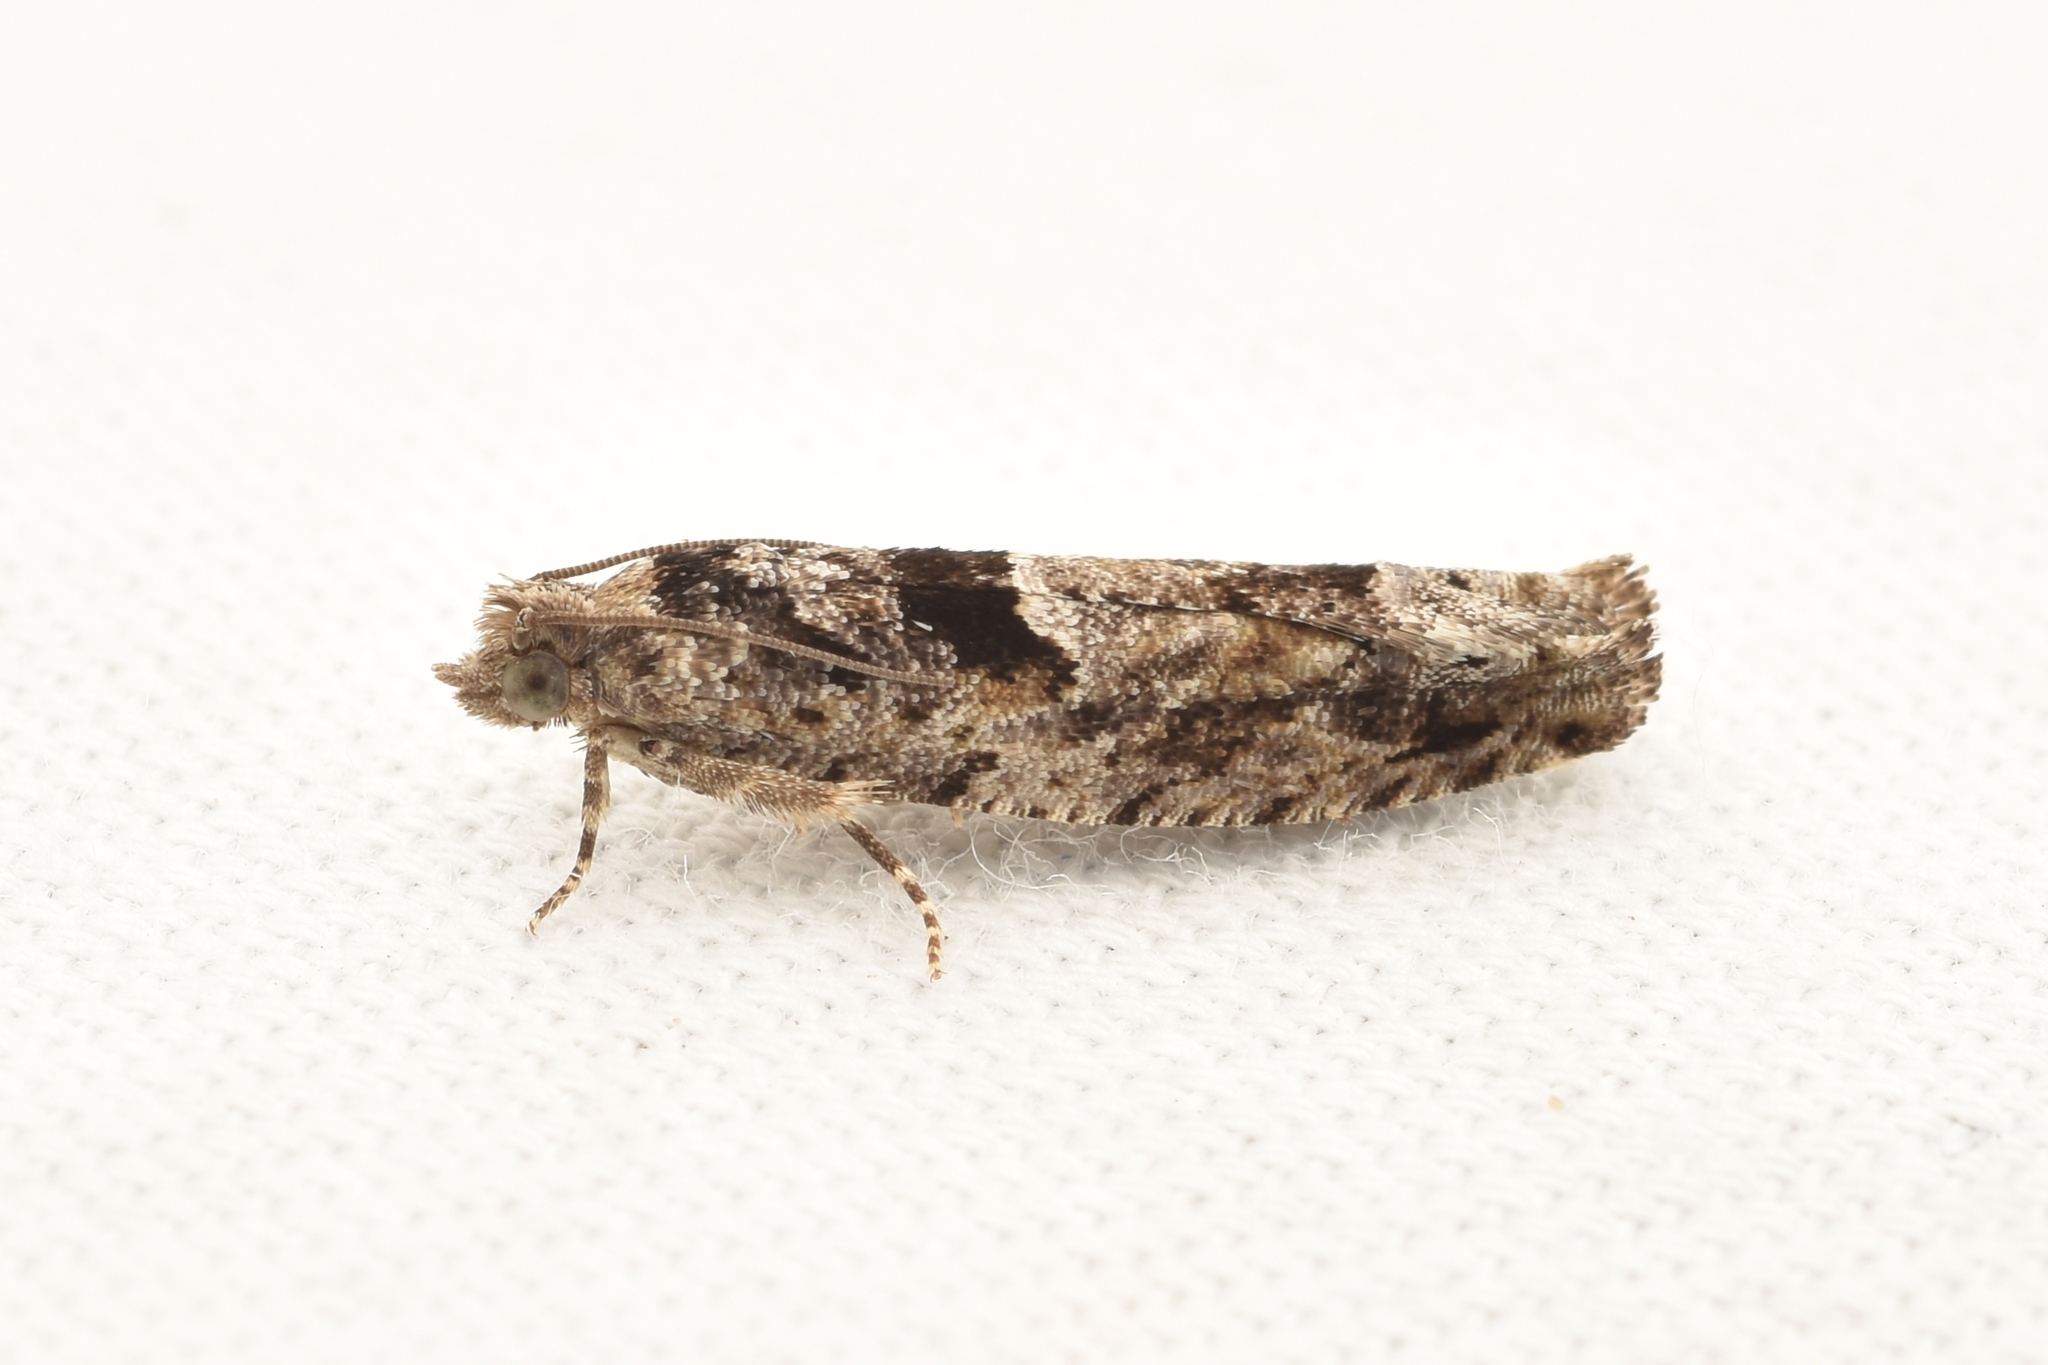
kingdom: Animalia
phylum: Arthropoda
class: Insecta
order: Lepidoptera
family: Tortricidae
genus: Pseudexentera
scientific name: Pseudexentera hodsoni
